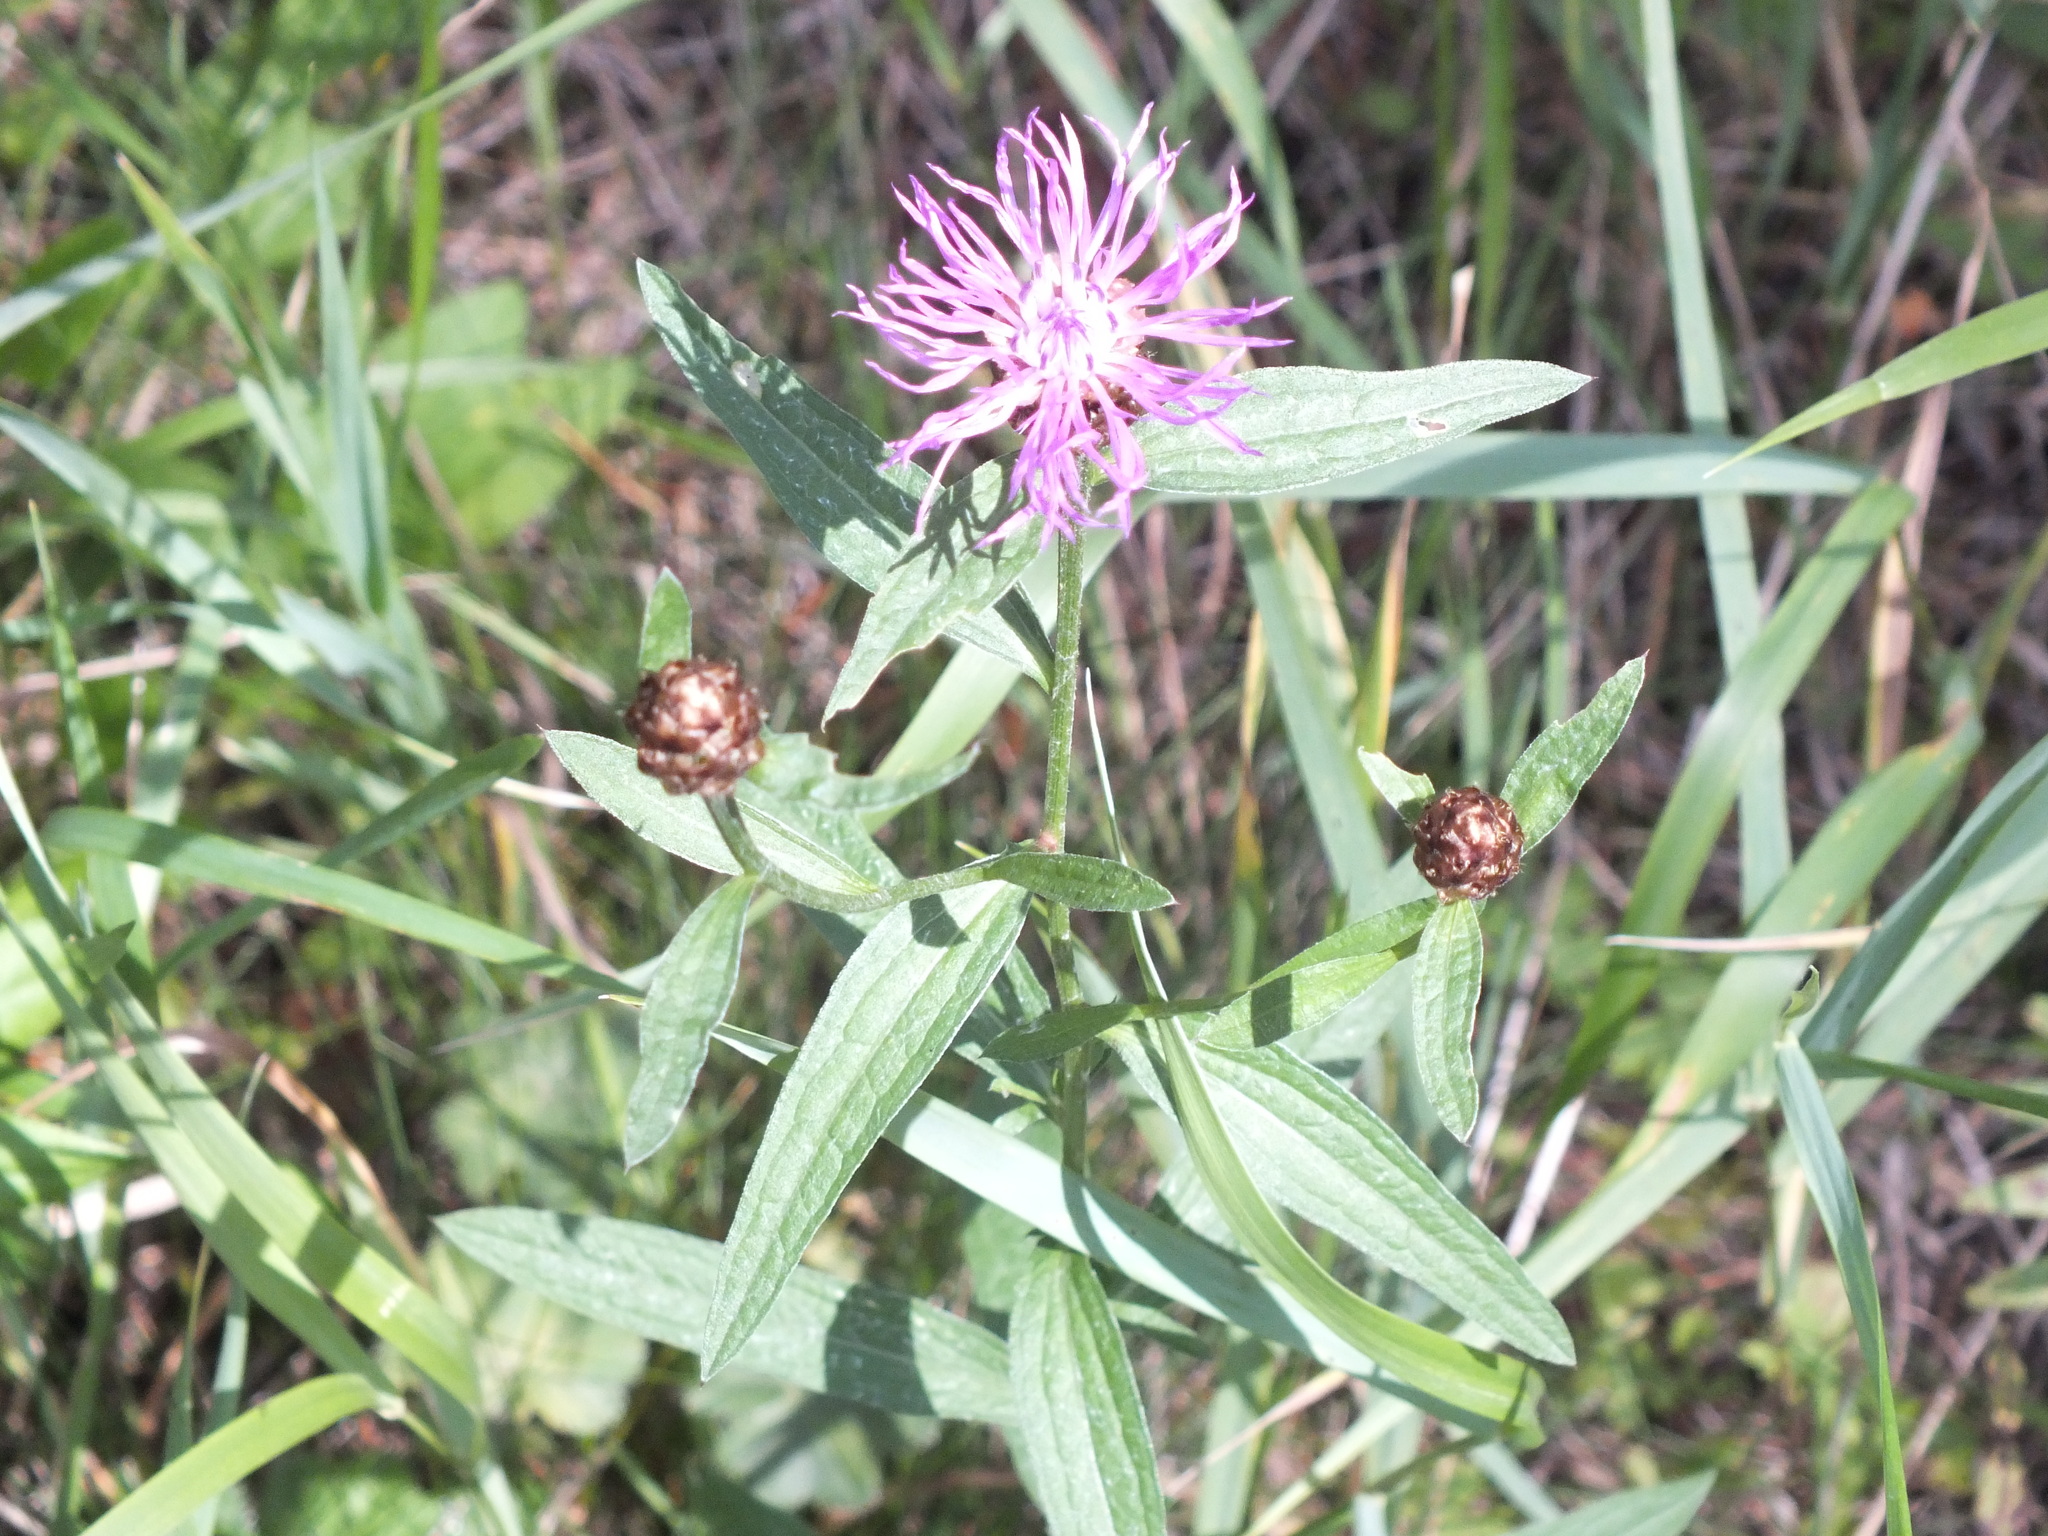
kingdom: Plantae
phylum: Tracheophyta
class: Magnoliopsida
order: Asterales
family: Asteraceae
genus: Centaurea
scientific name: Centaurea jacea
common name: Brown knapweed
